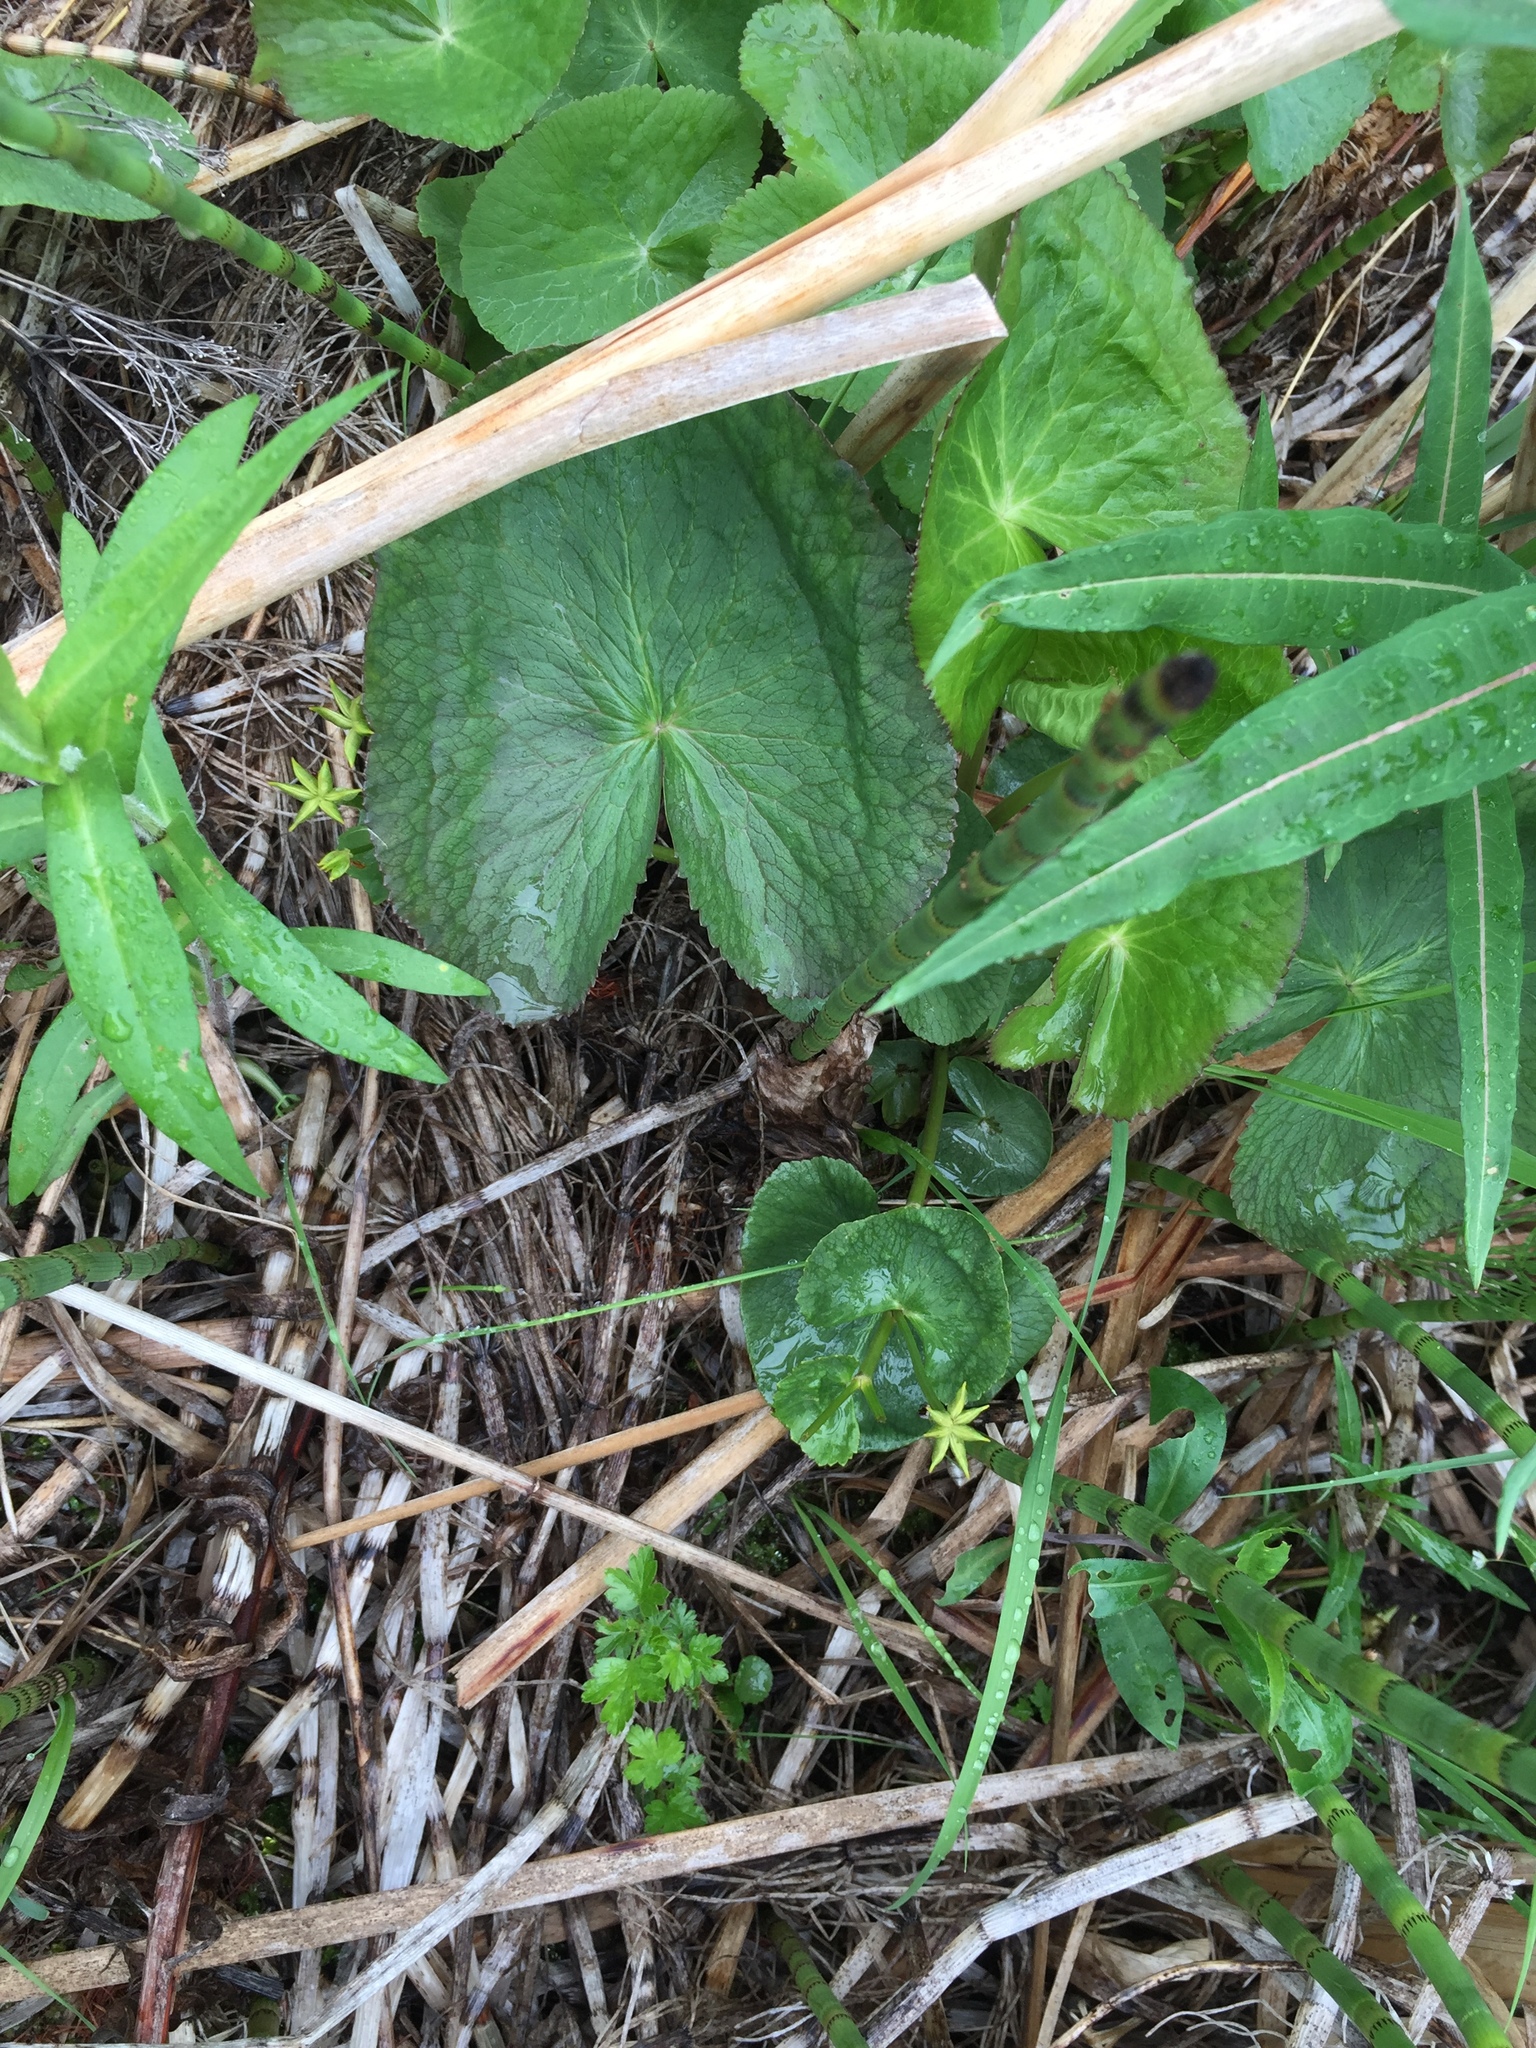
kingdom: Plantae
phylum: Tracheophyta
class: Magnoliopsida
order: Ranunculales
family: Ranunculaceae
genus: Caltha
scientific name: Caltha palustris
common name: Marsh marigold
